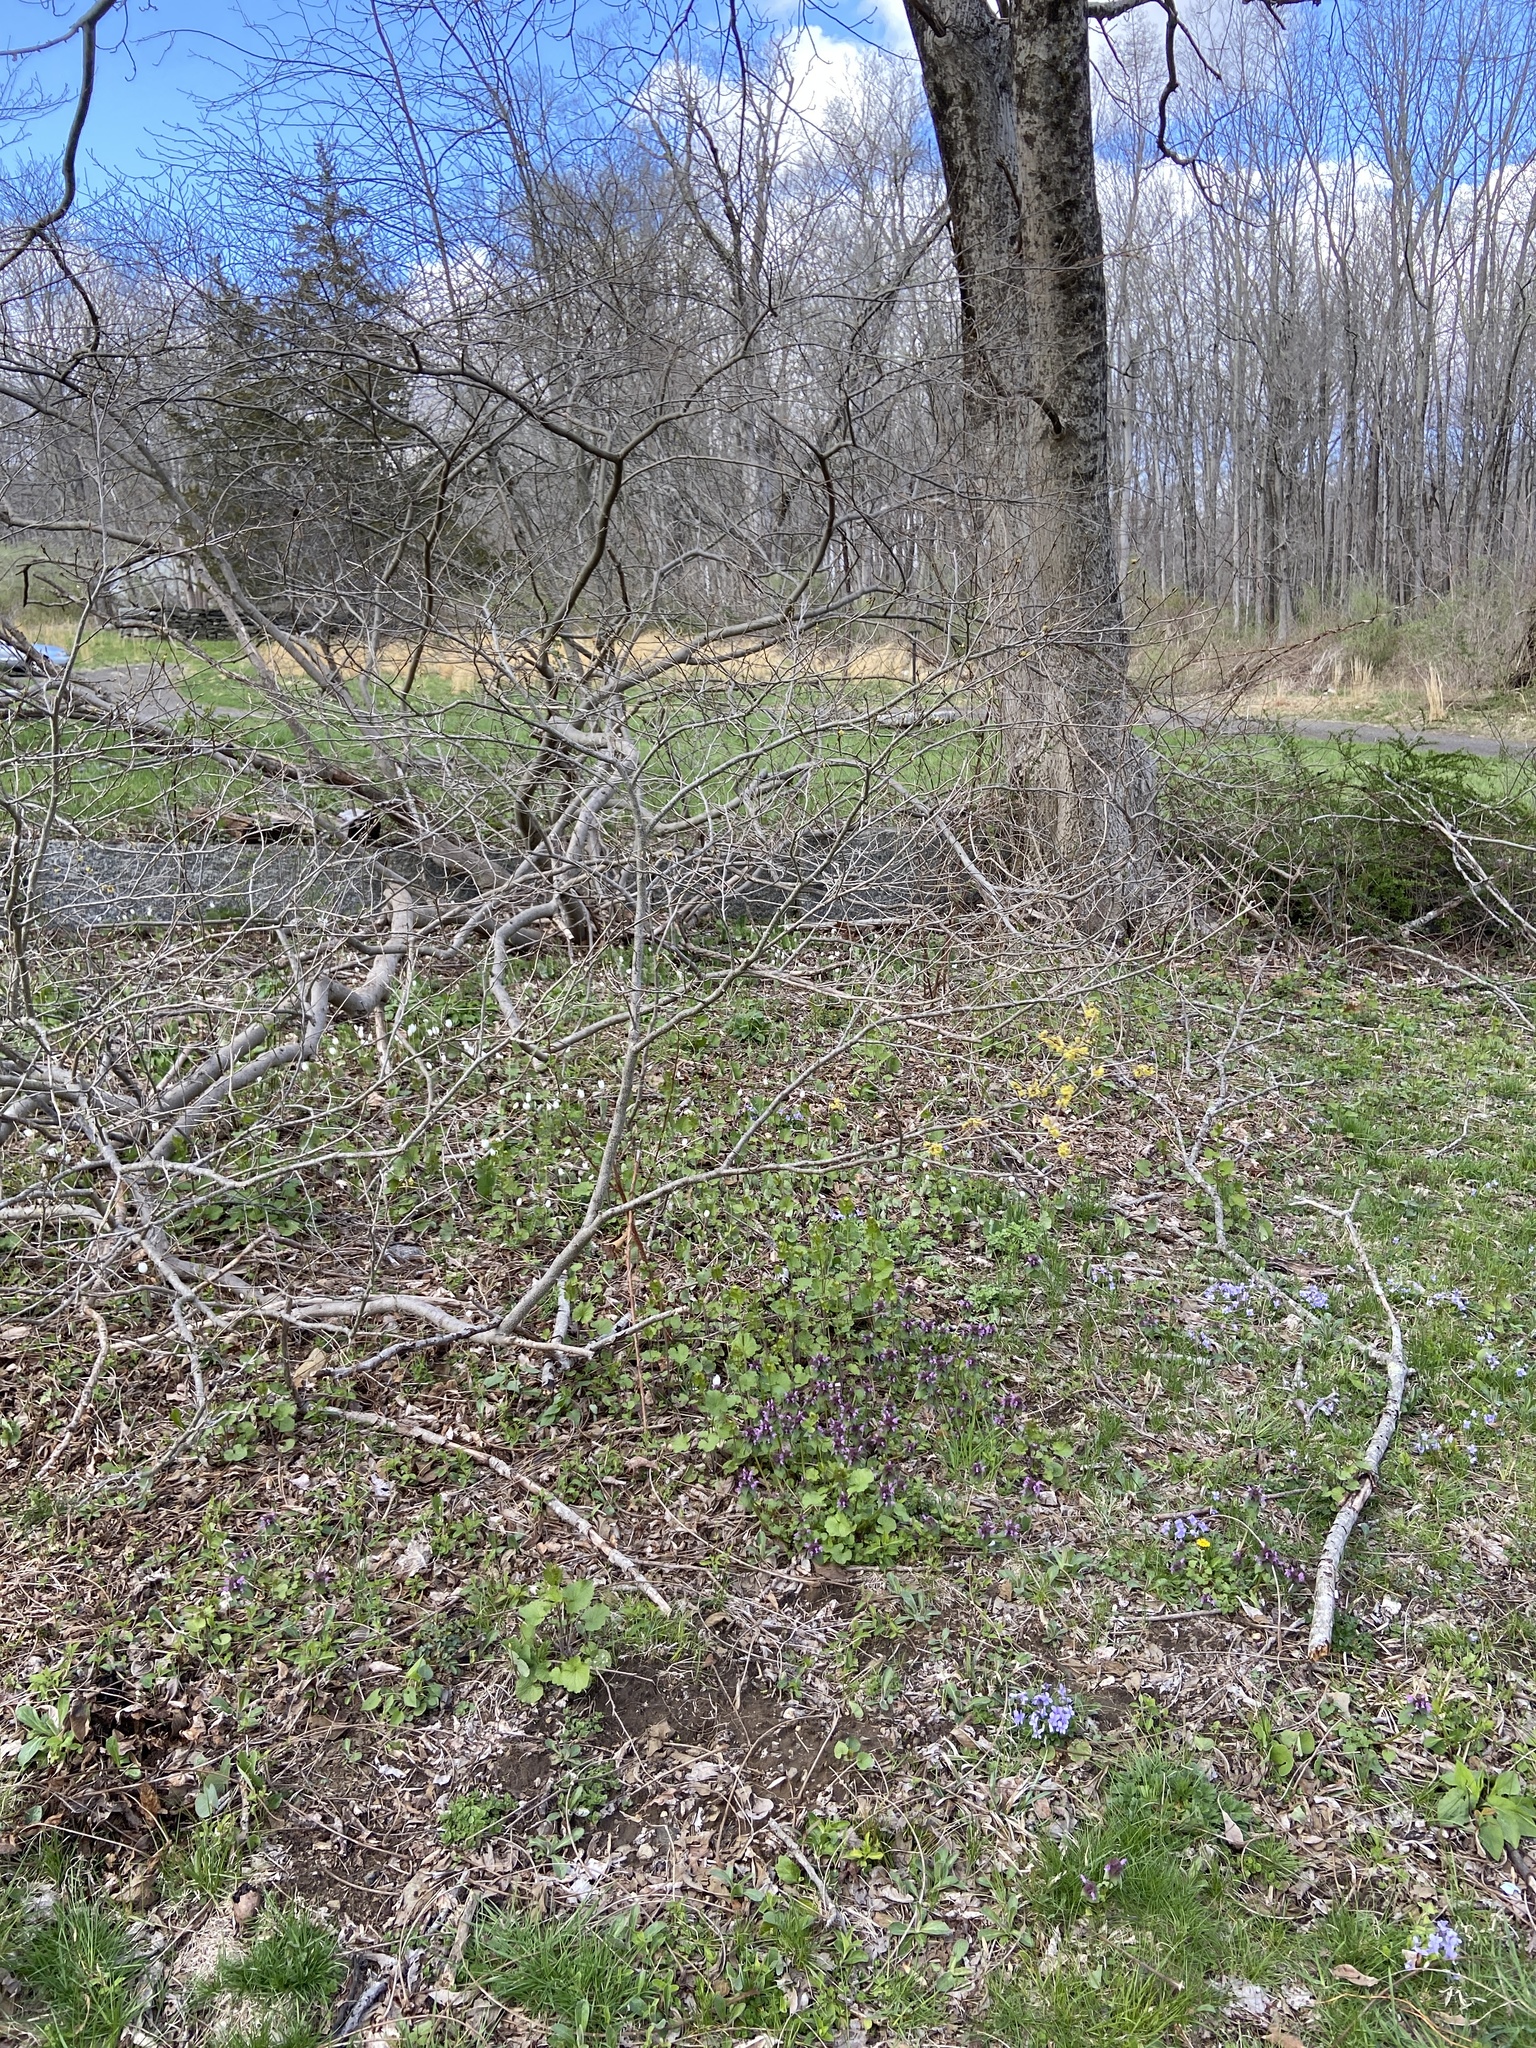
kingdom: Plantae
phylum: Tracheophyta
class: Magnoliopsida
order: Laurales
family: Lauraceae
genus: Lindera
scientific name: Lindera benzoin
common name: Spicebush
